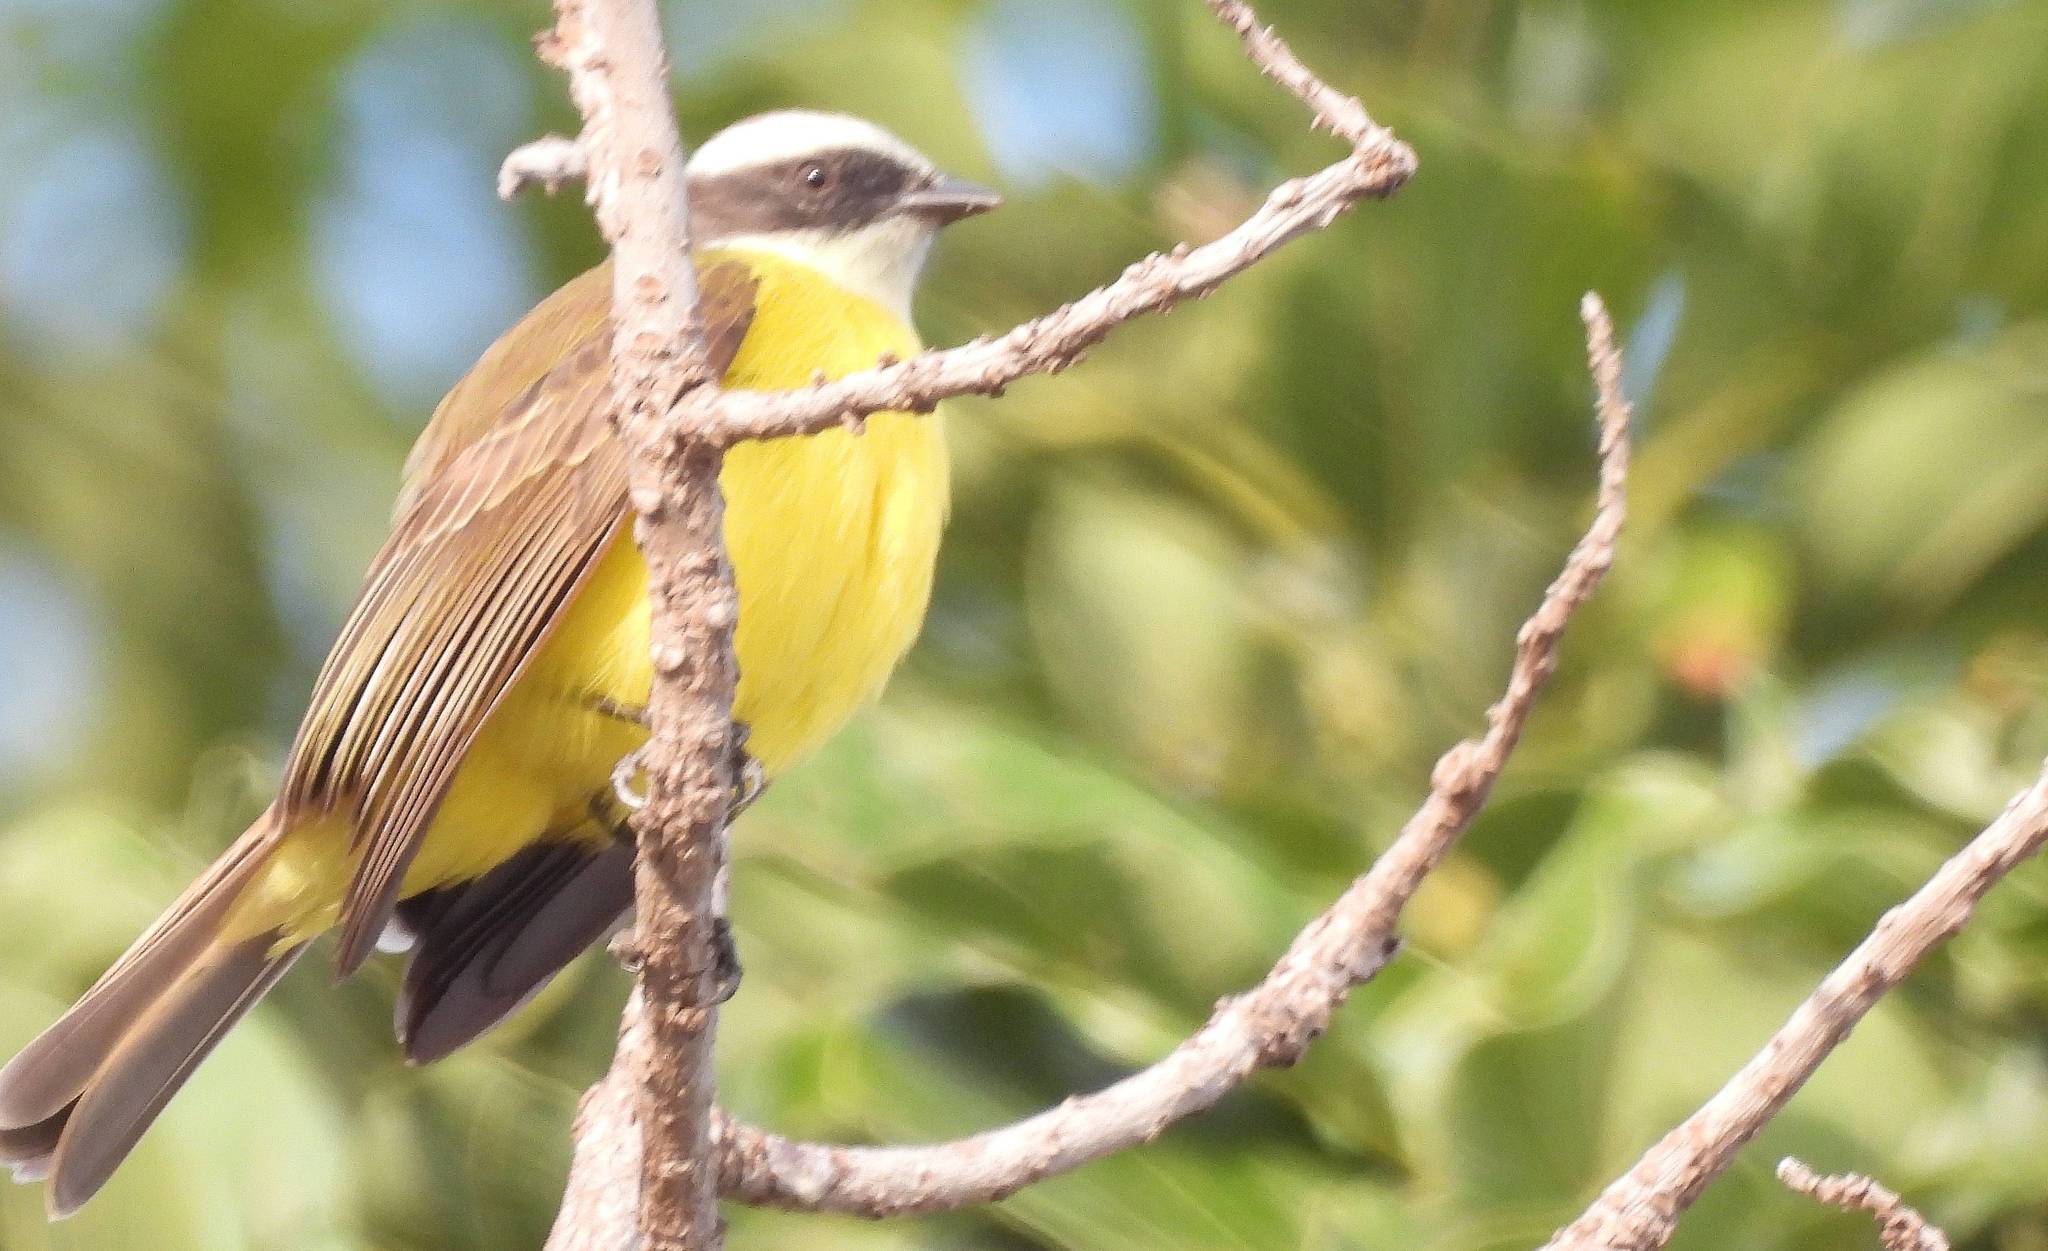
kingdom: Animalia
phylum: Chordata
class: Aves
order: Passeriformes
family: Tyrannidae
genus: Myiozetetes
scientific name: Myiozetetes similis
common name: Social flycatcher
